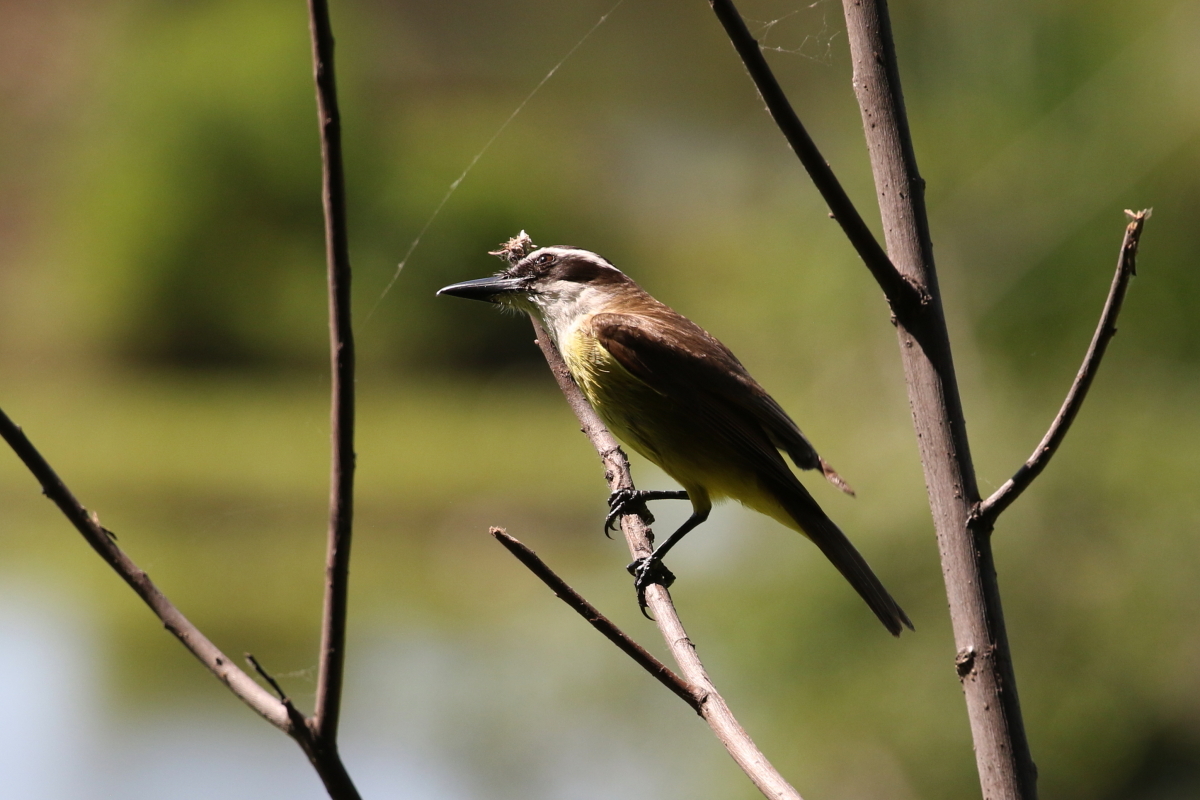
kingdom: Animalia
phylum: Chordata
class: Aves
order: Passeriformes
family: Tyrannidae
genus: Pitangus
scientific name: Pitangus sulphuratus
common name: Great kiskadee
